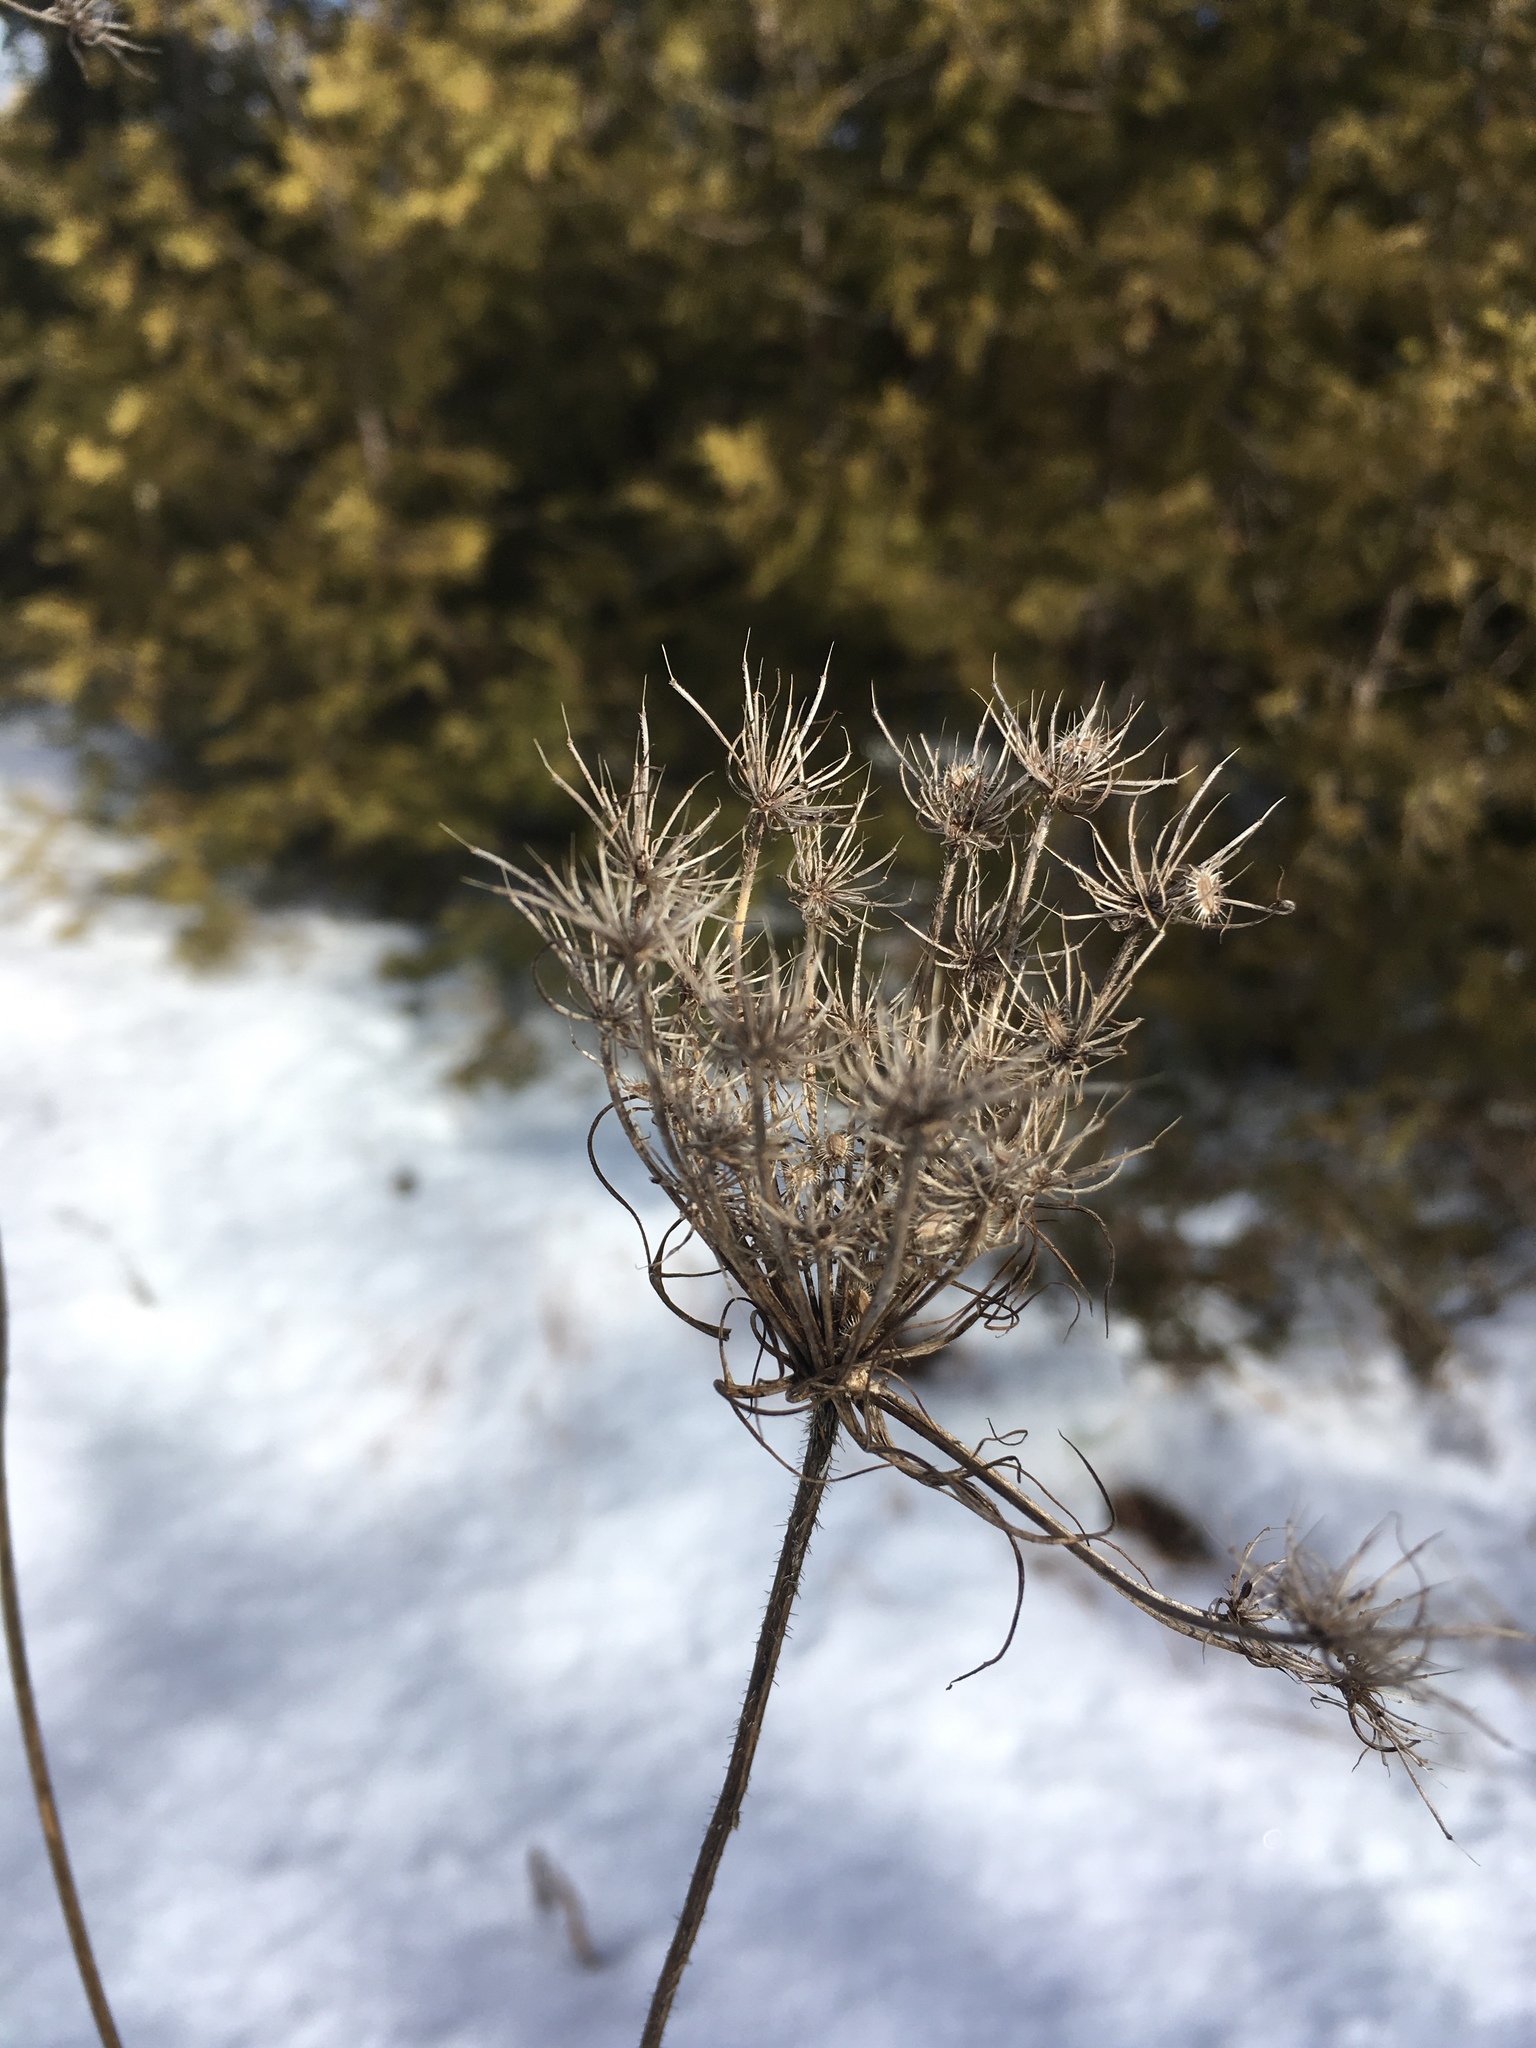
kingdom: Plantae
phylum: Tracheophyta
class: Magnoliopsida
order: Apiales
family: Apiaceae
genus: Daucus
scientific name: Daucus carota
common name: Wild carrot
